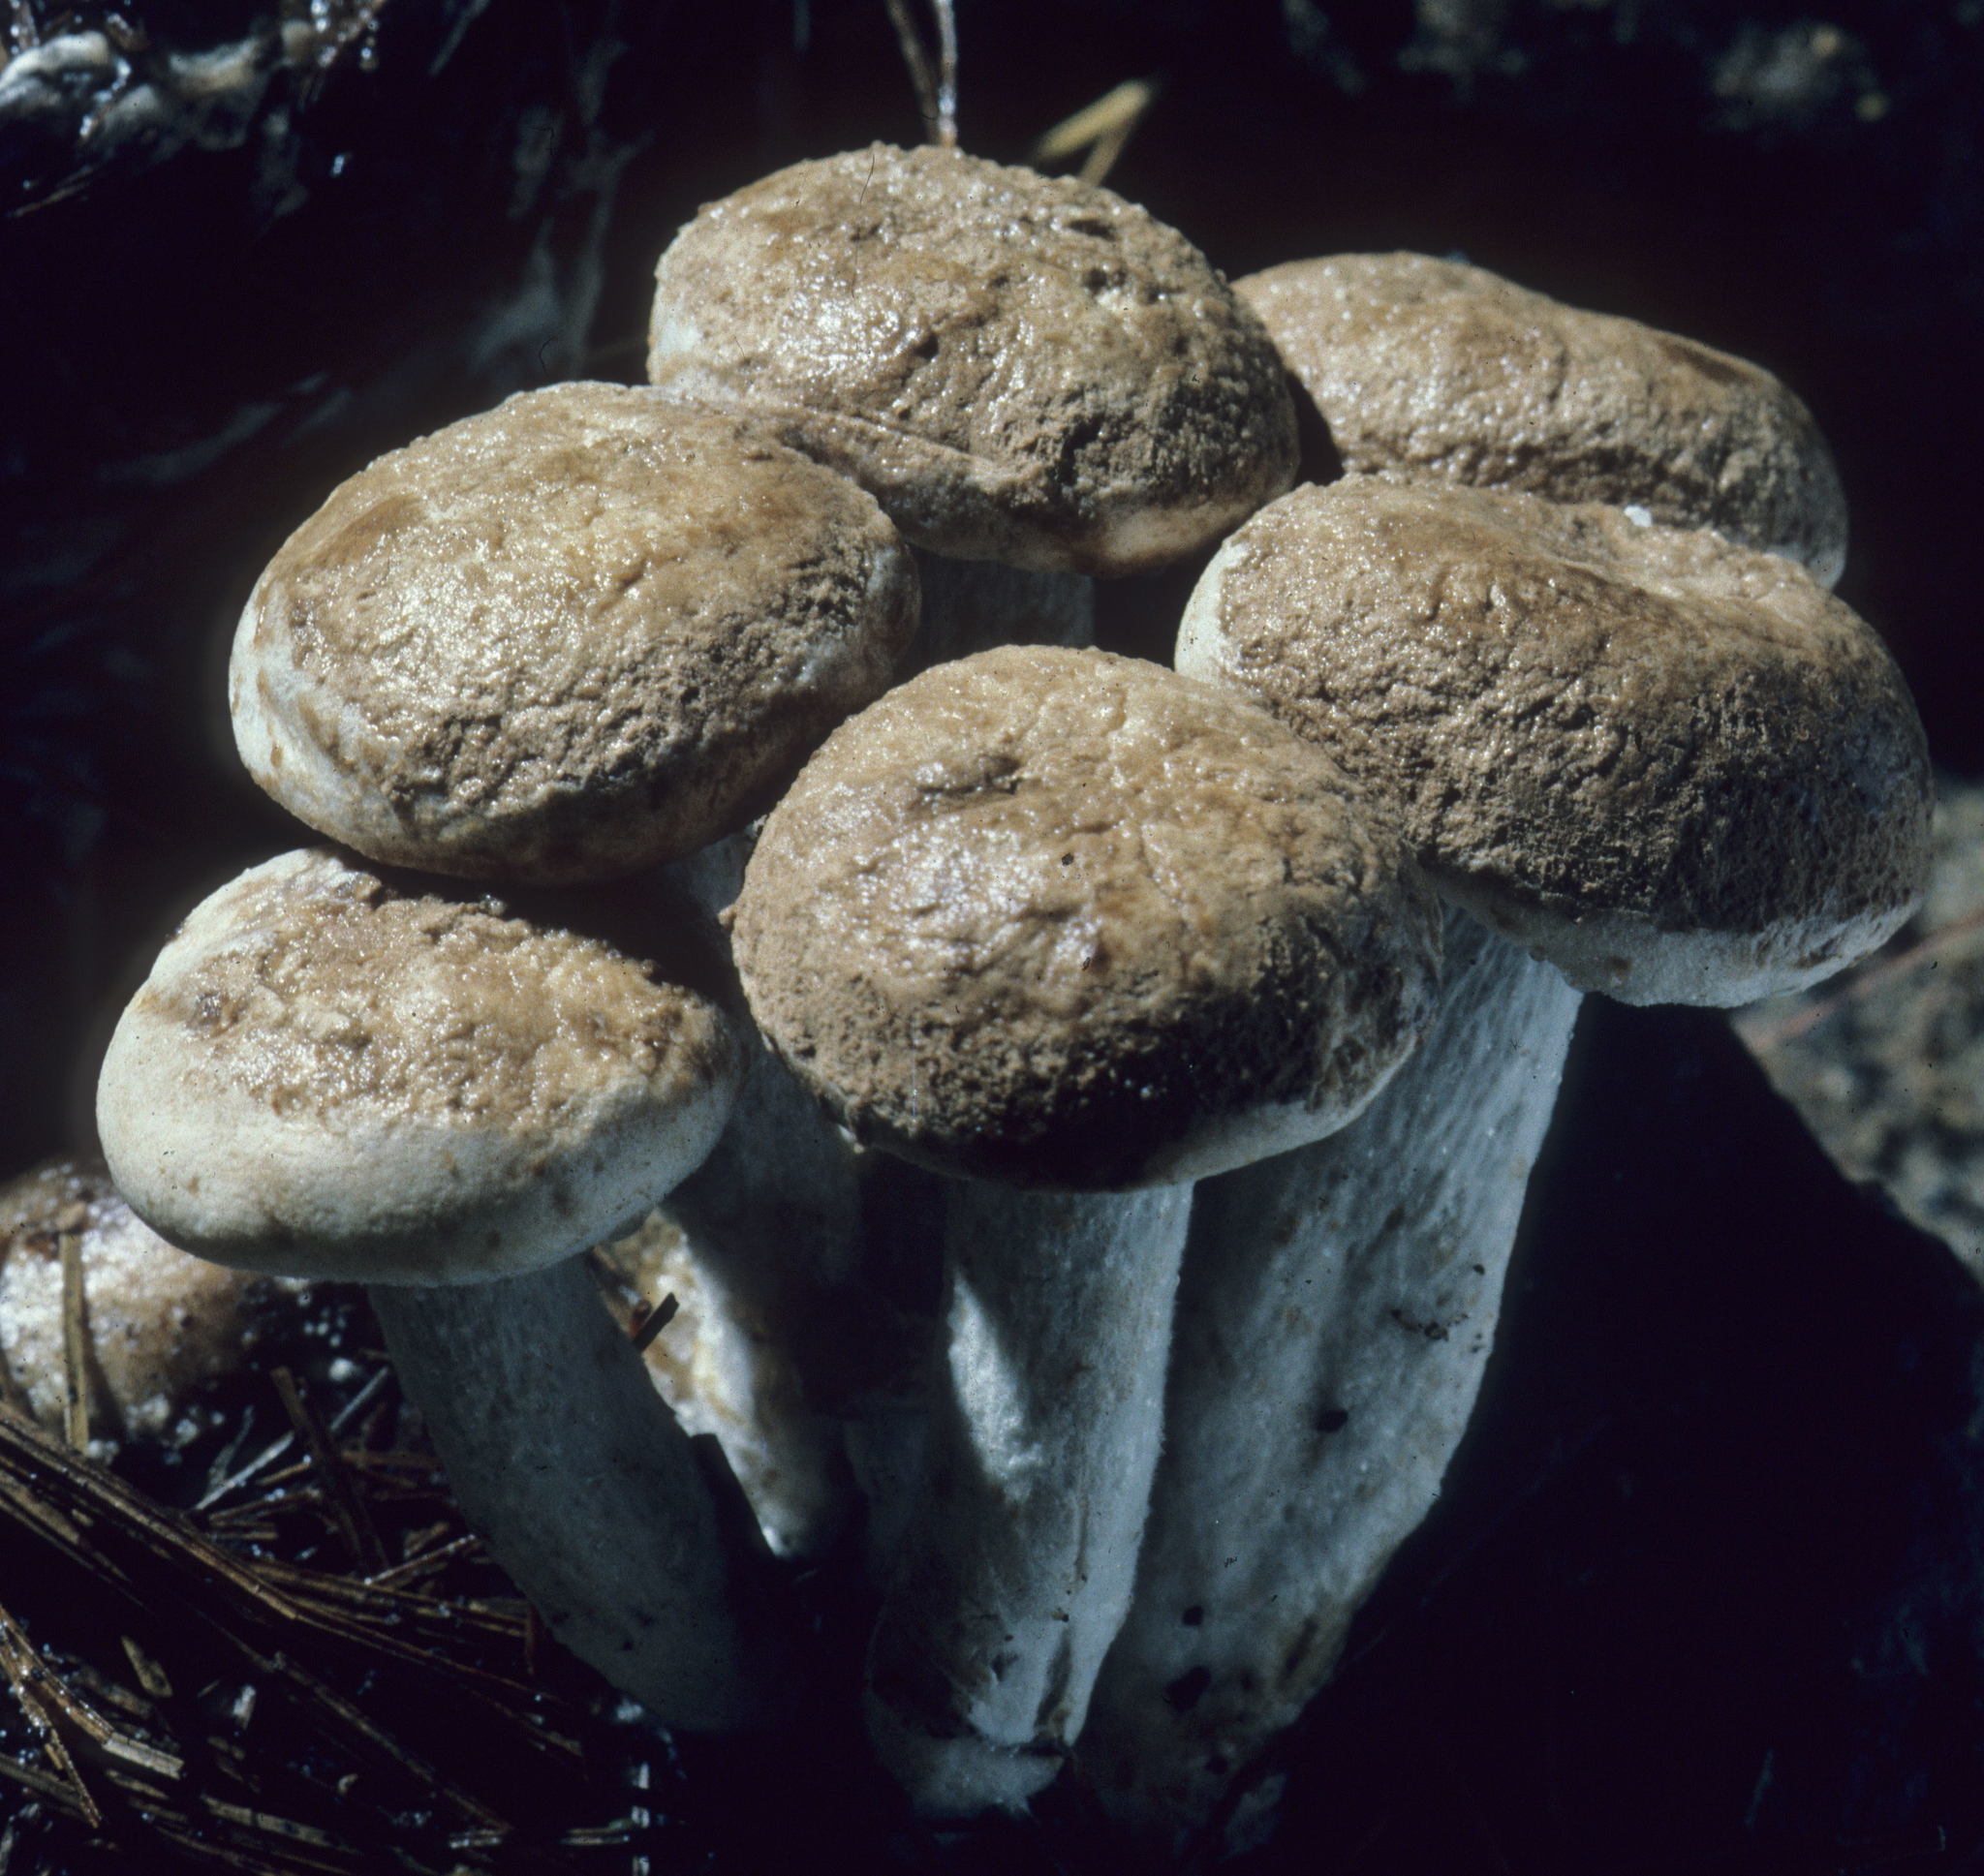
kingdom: Fungi
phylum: Basidiomycota
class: Agaricomycetes
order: Agaricales
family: Lyophyllaceae
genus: Asterophora
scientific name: Asterophora lycoperdoides
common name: Pick-a-back toadstool
